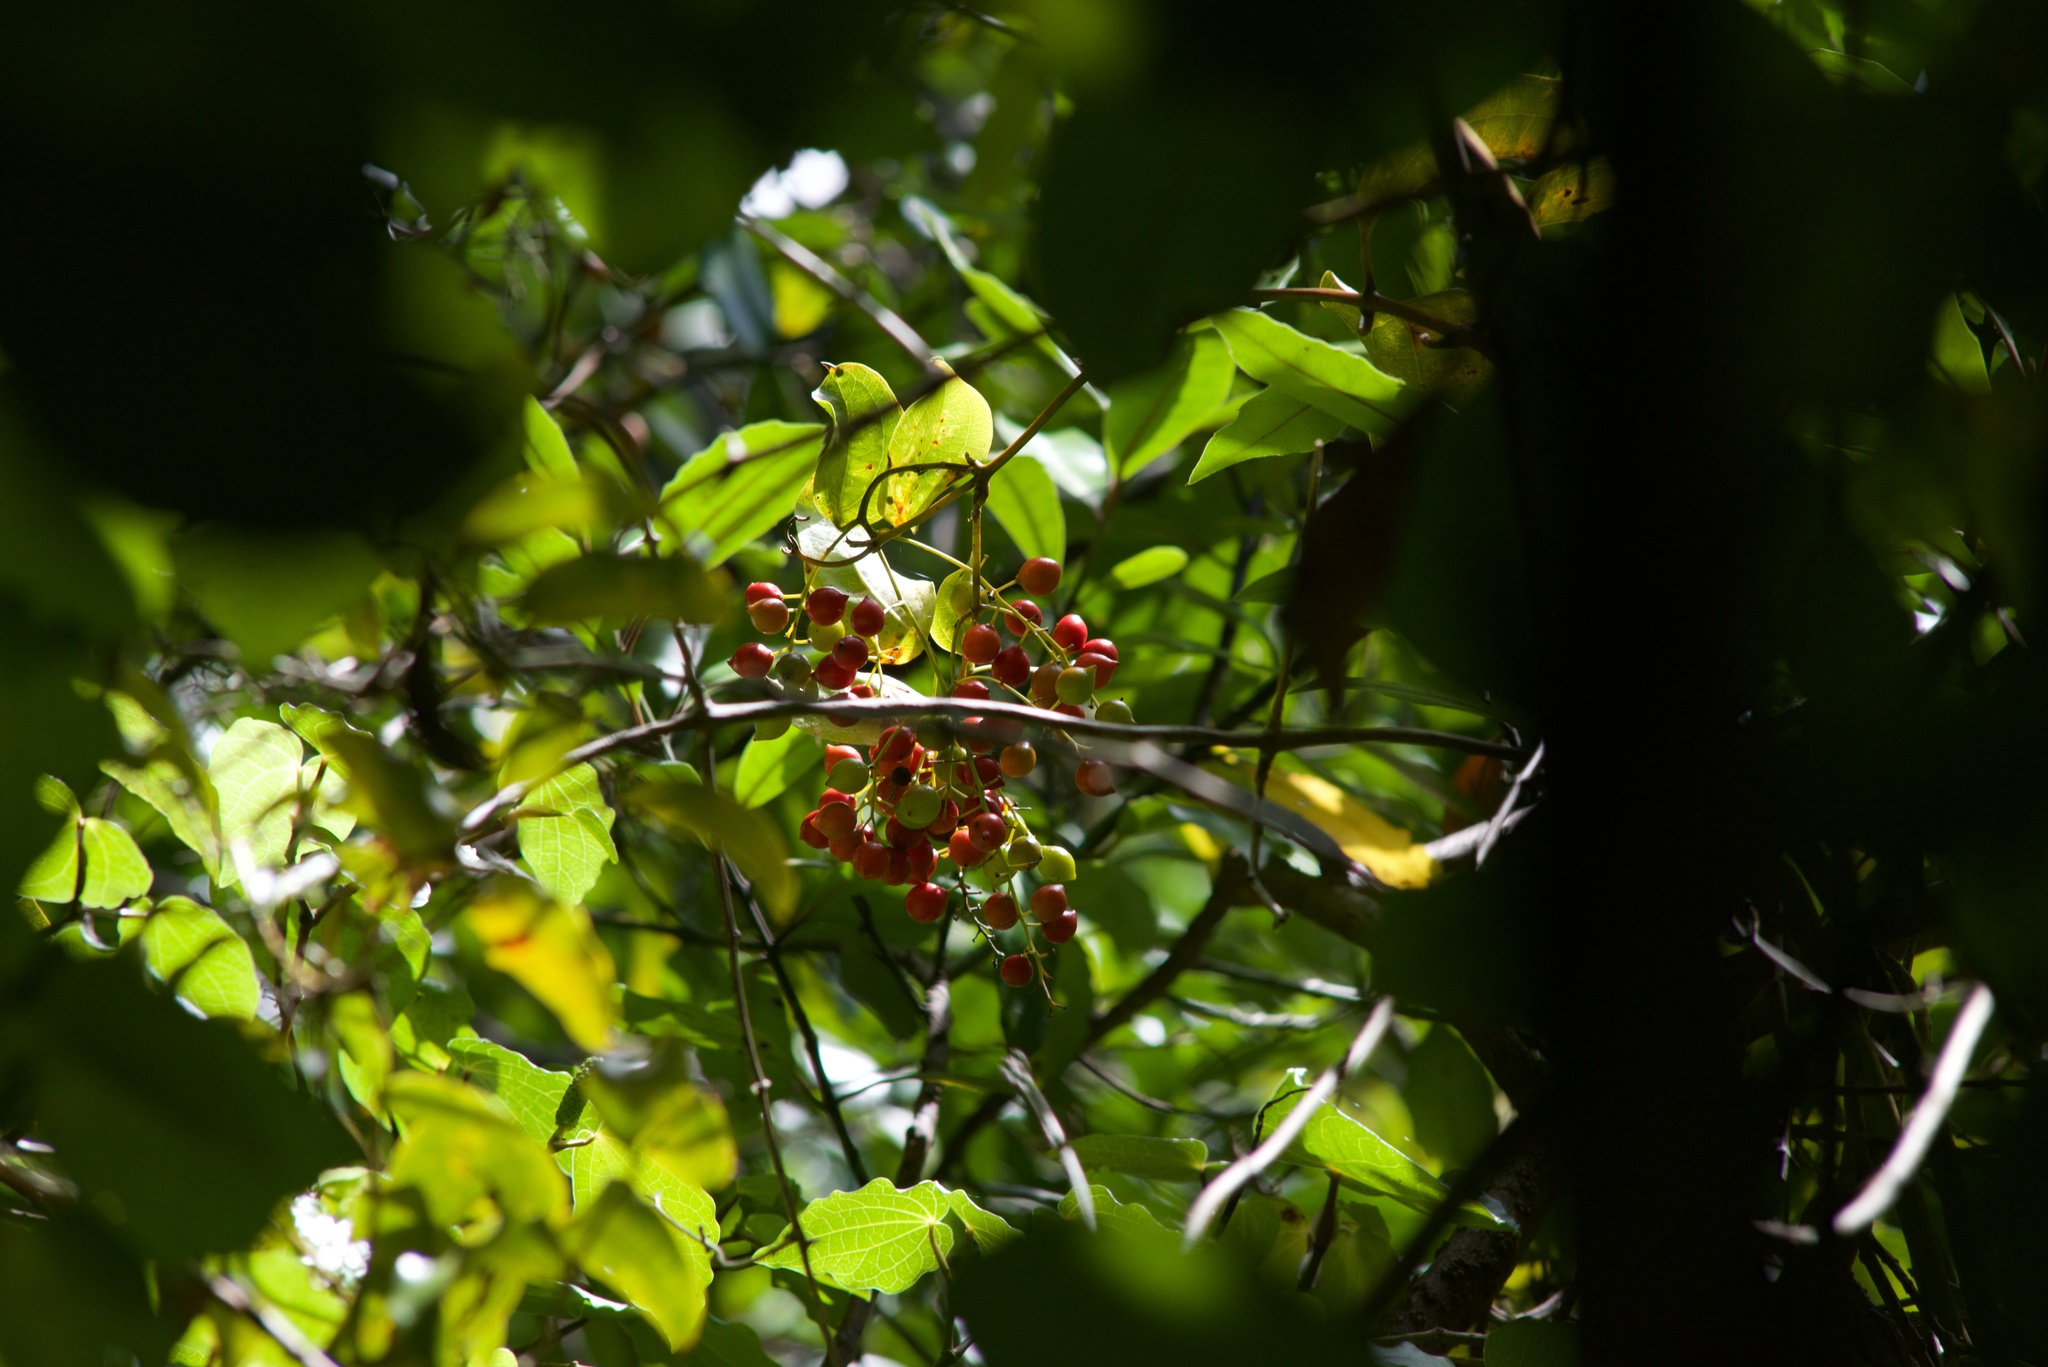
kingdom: Plantae
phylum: Tracheophyta
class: Liliopsida
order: Liliales
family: Ripogonaceae
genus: Ripogonum
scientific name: Ripogonum scandens
